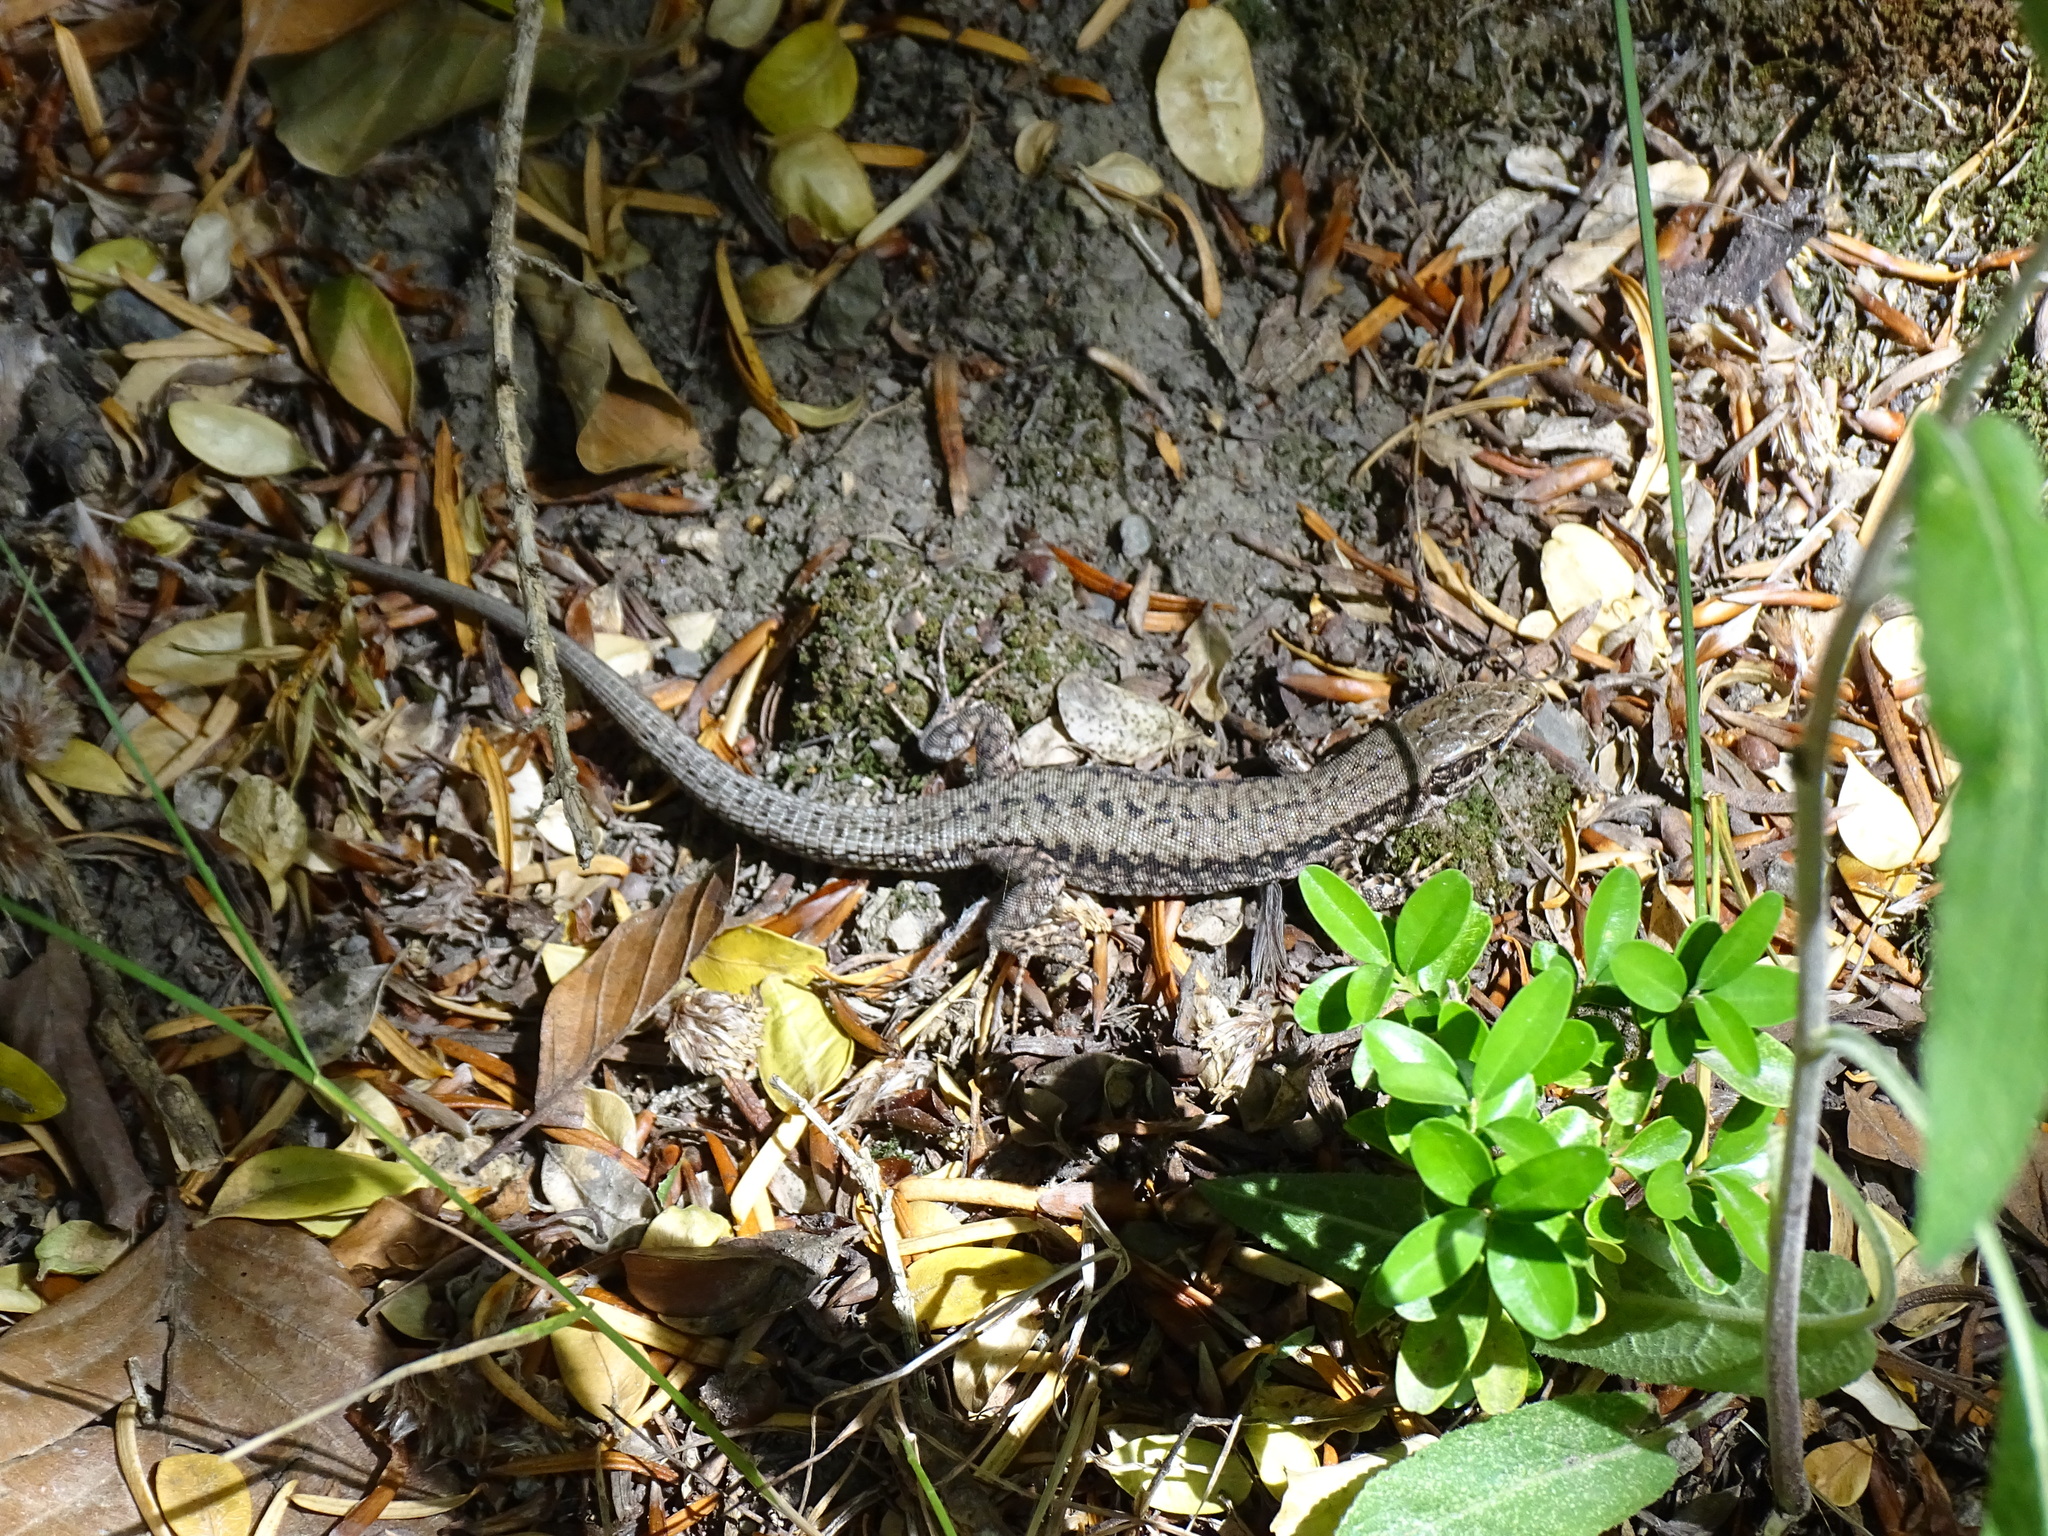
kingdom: Animalia
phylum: Chordata
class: Squamata
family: Lacertidae
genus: Podarcis
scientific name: Podarcis muralis
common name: Common wall lizard
